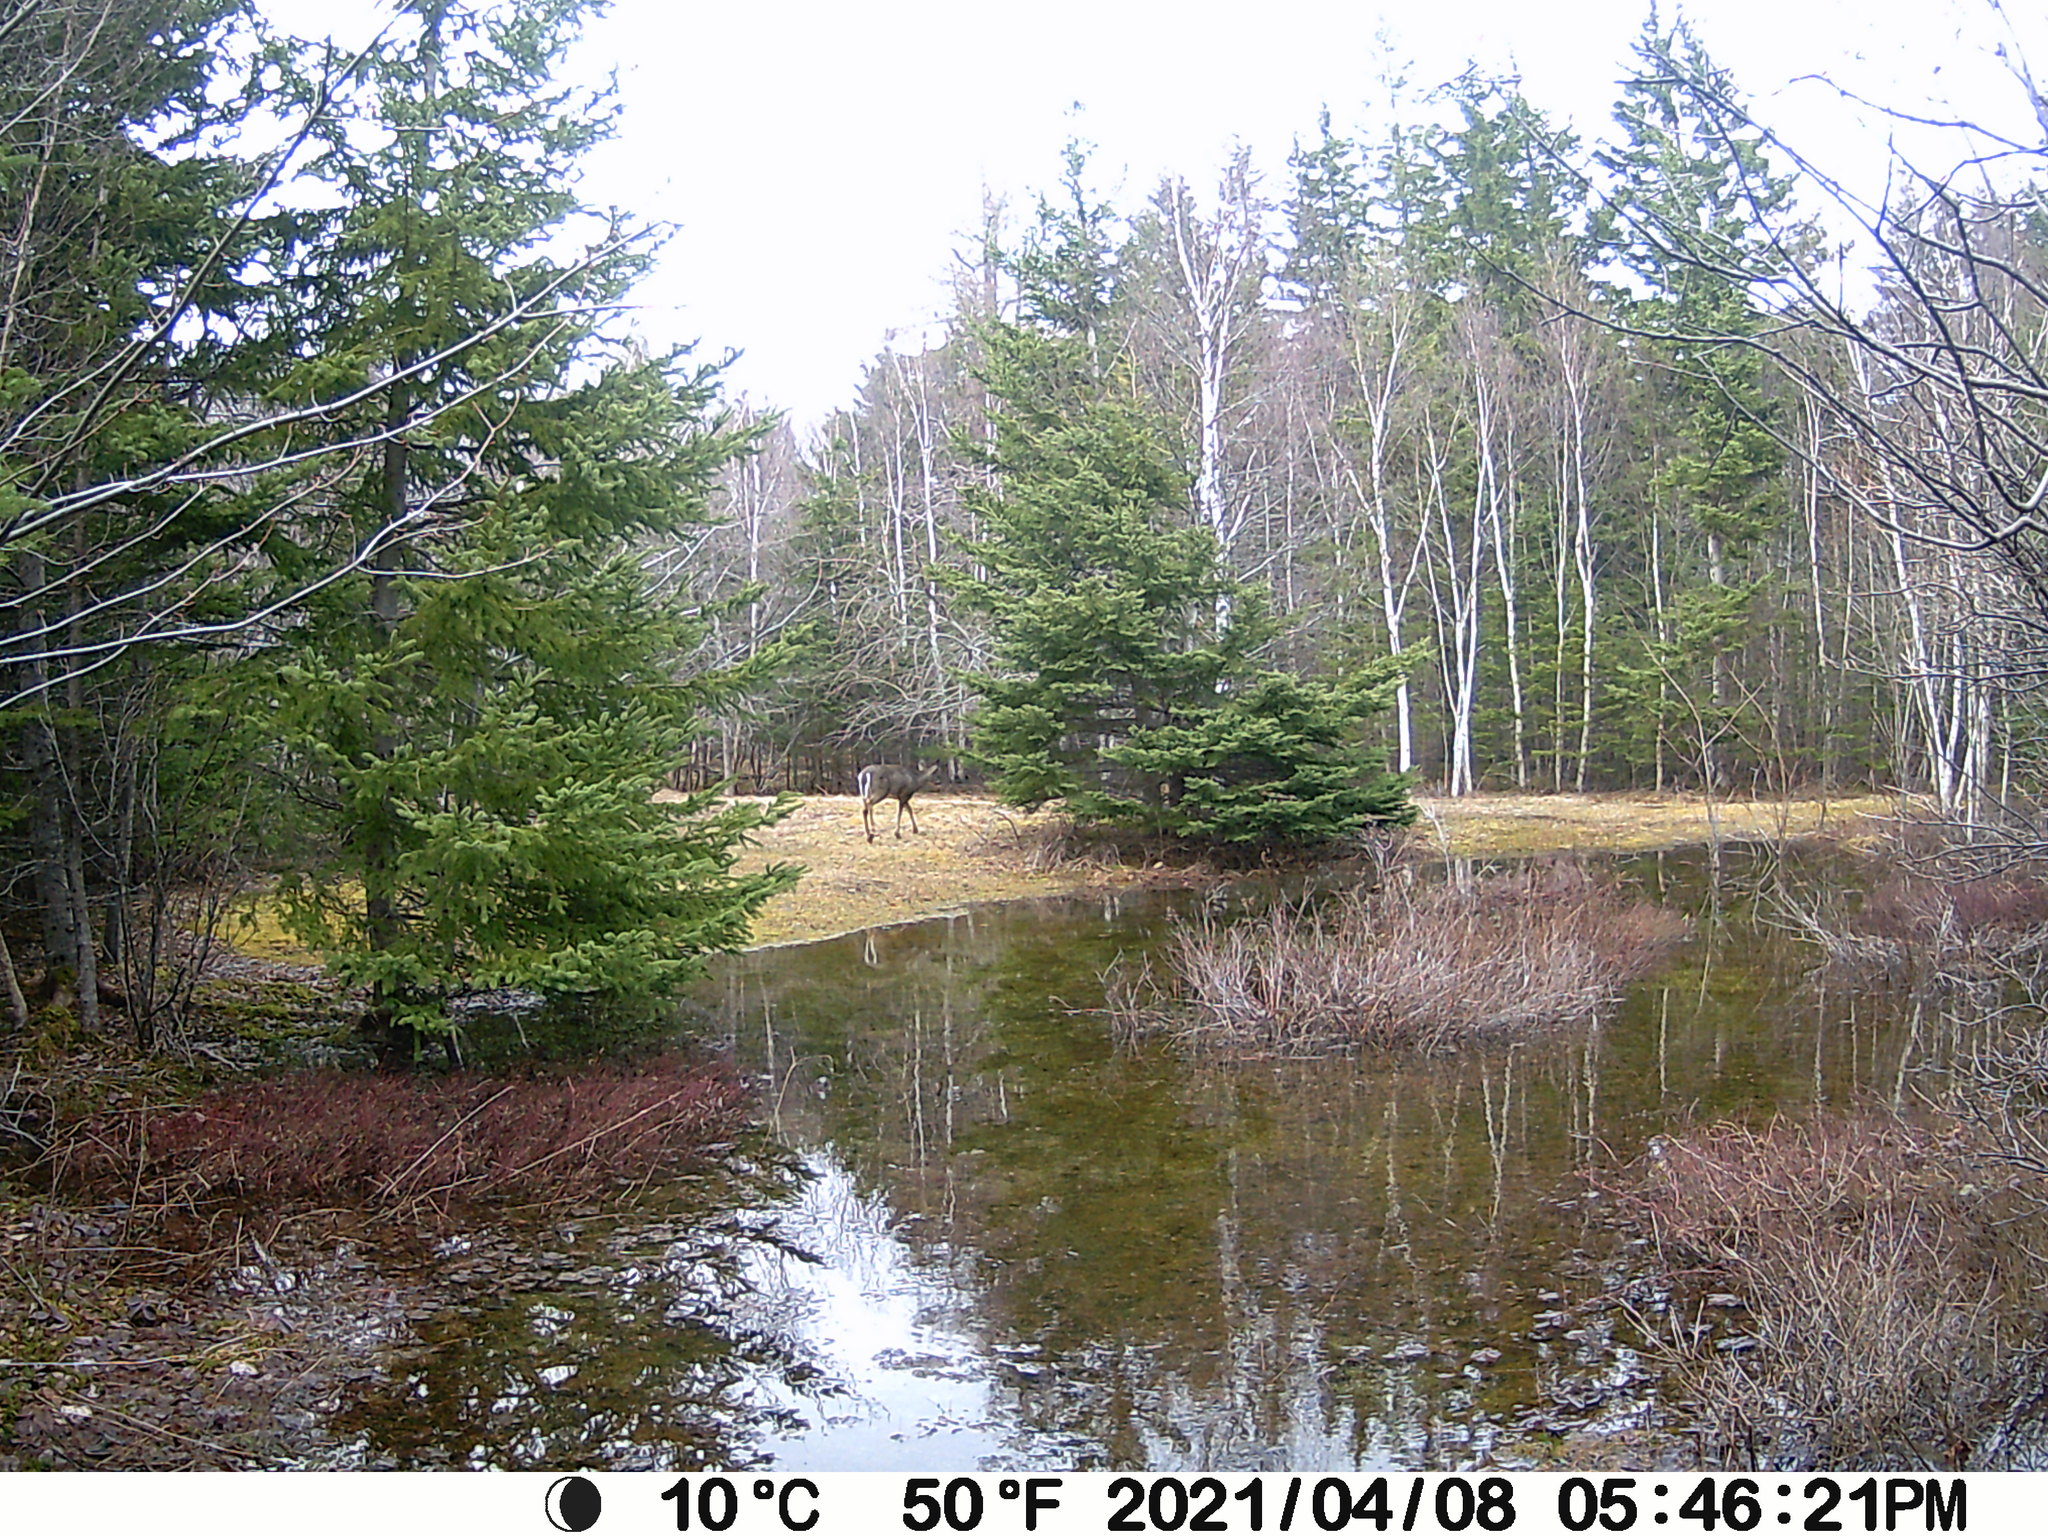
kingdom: Animalia
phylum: Chordata
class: Mammalia
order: Artiodactyla
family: Cervidae
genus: Odocoileus
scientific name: Odocoileus virginianus
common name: White-tailed deer
